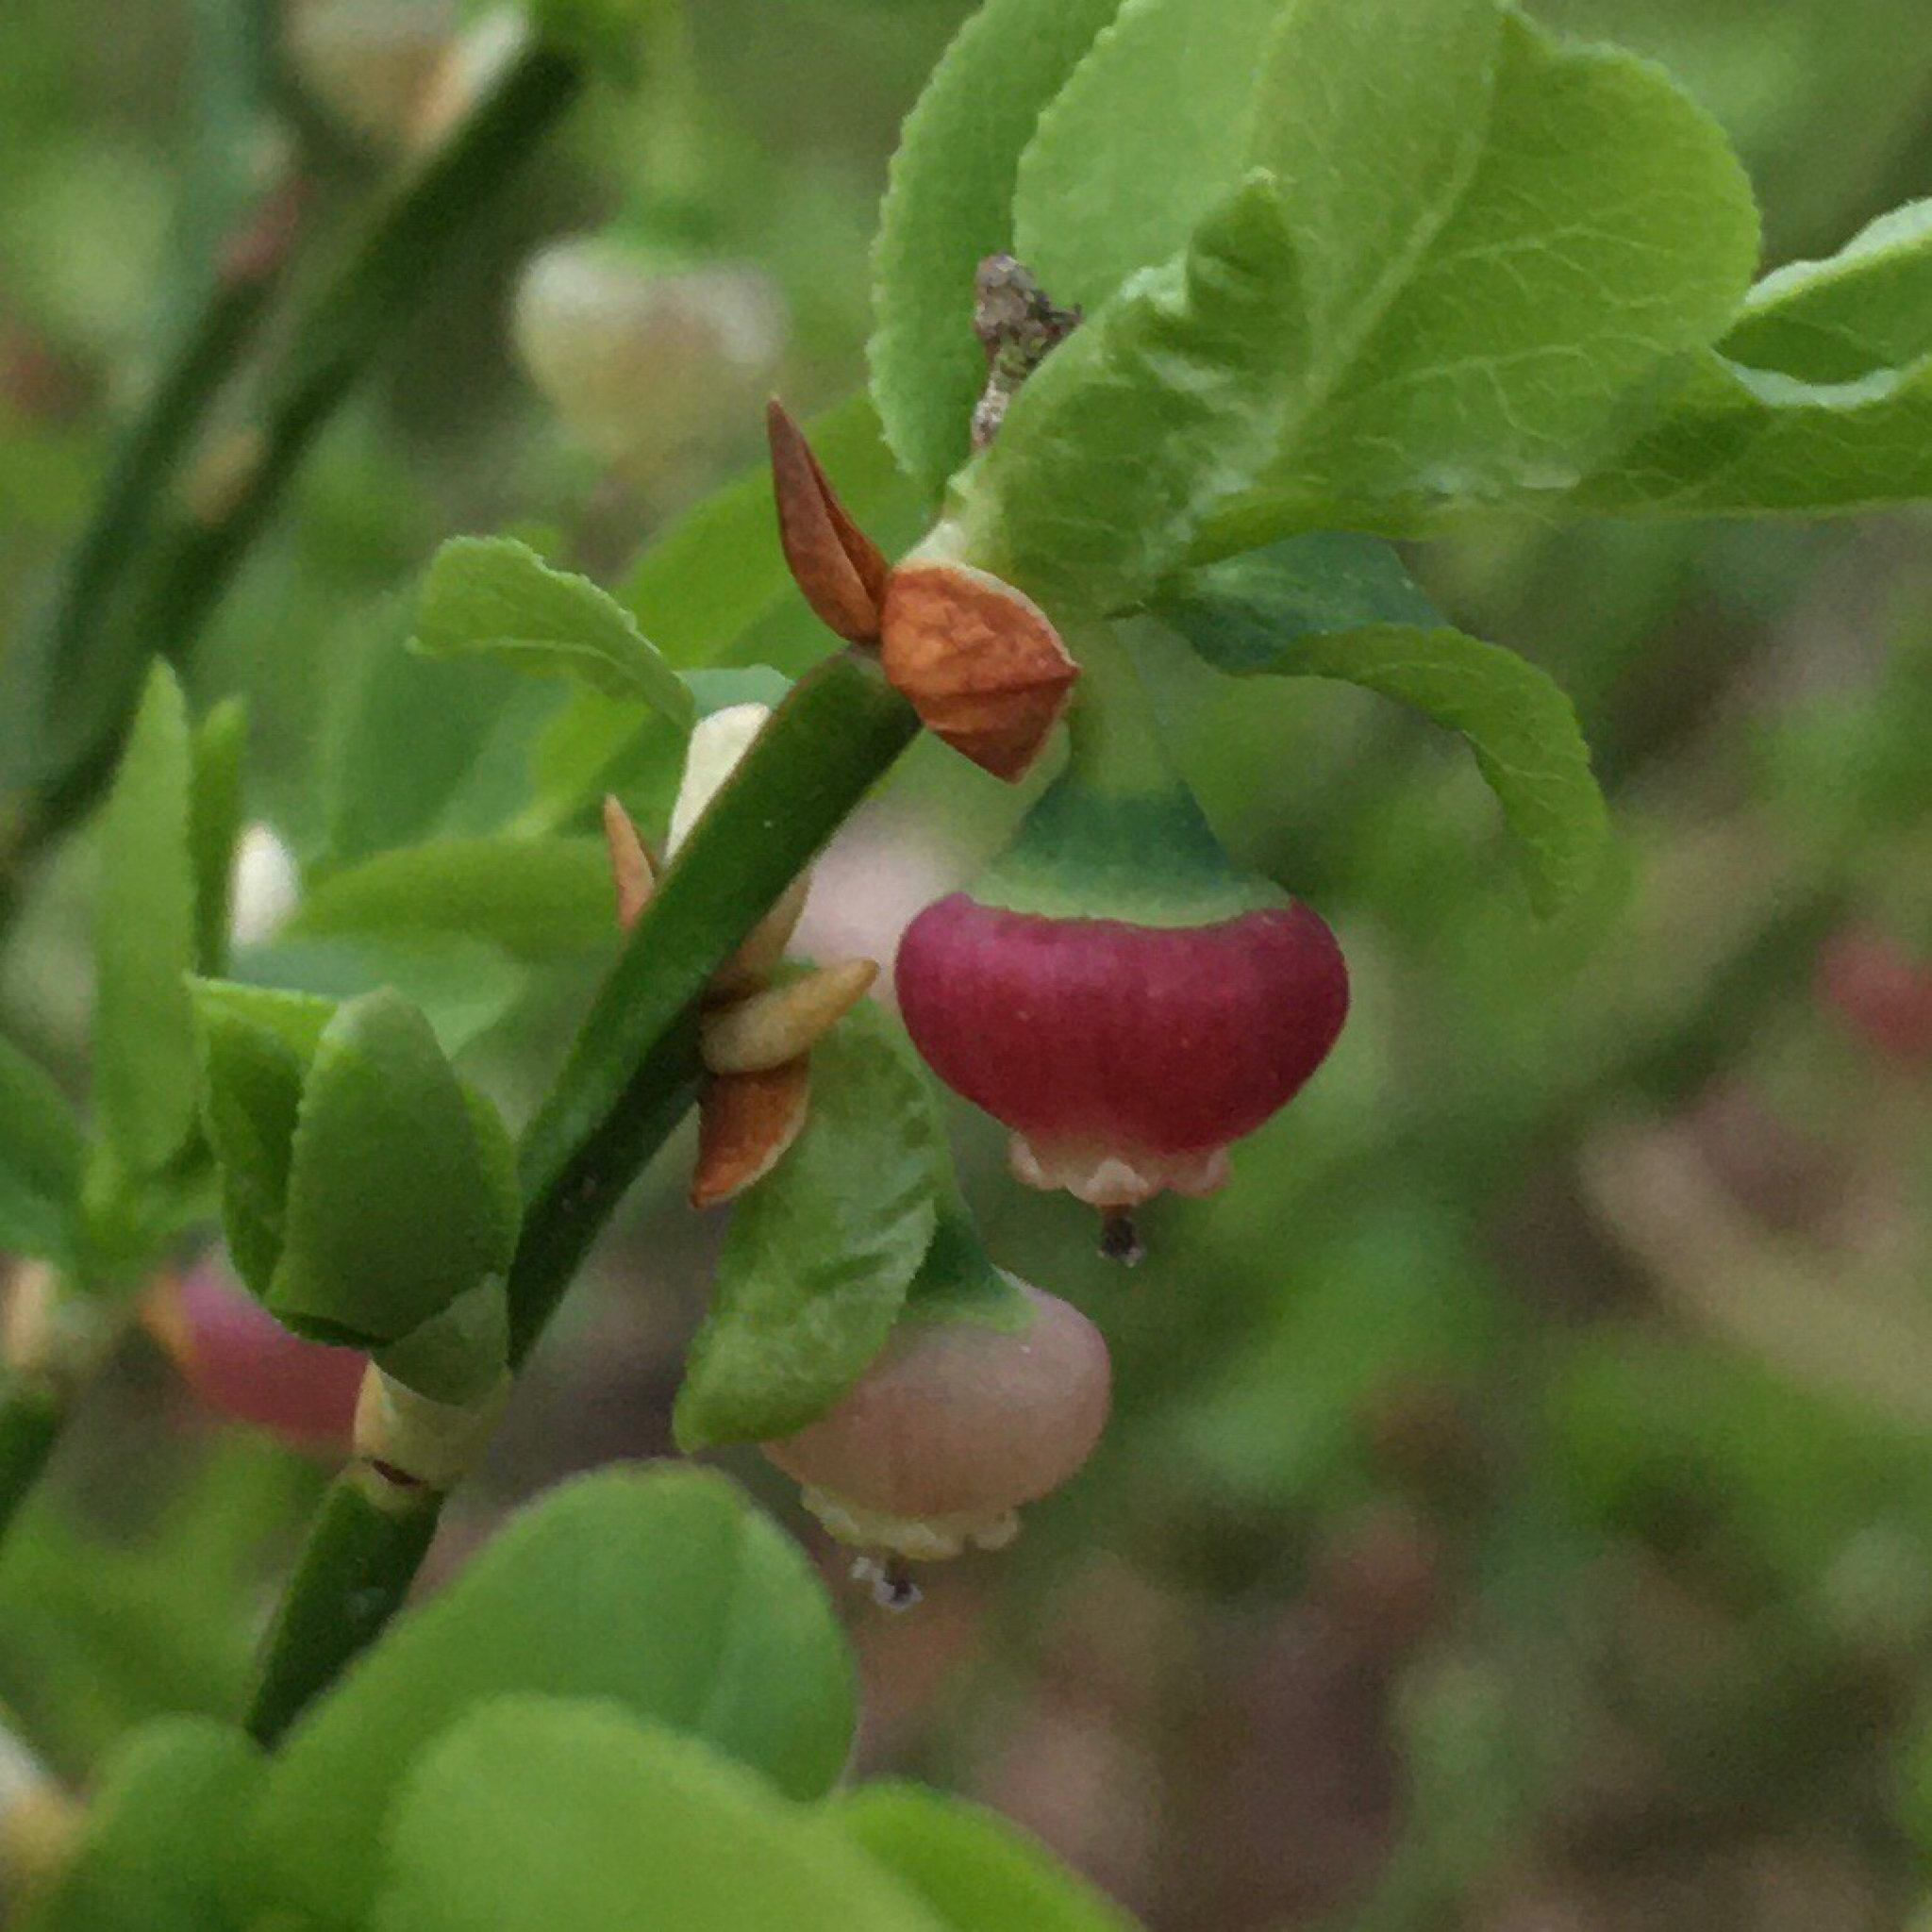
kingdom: Plantae
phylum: Tracheophyta
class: Magnoliopsida
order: Ericales
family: Ericaceae
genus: Vaccinium
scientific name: Vaccinium myrtillus
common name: Bilberry
